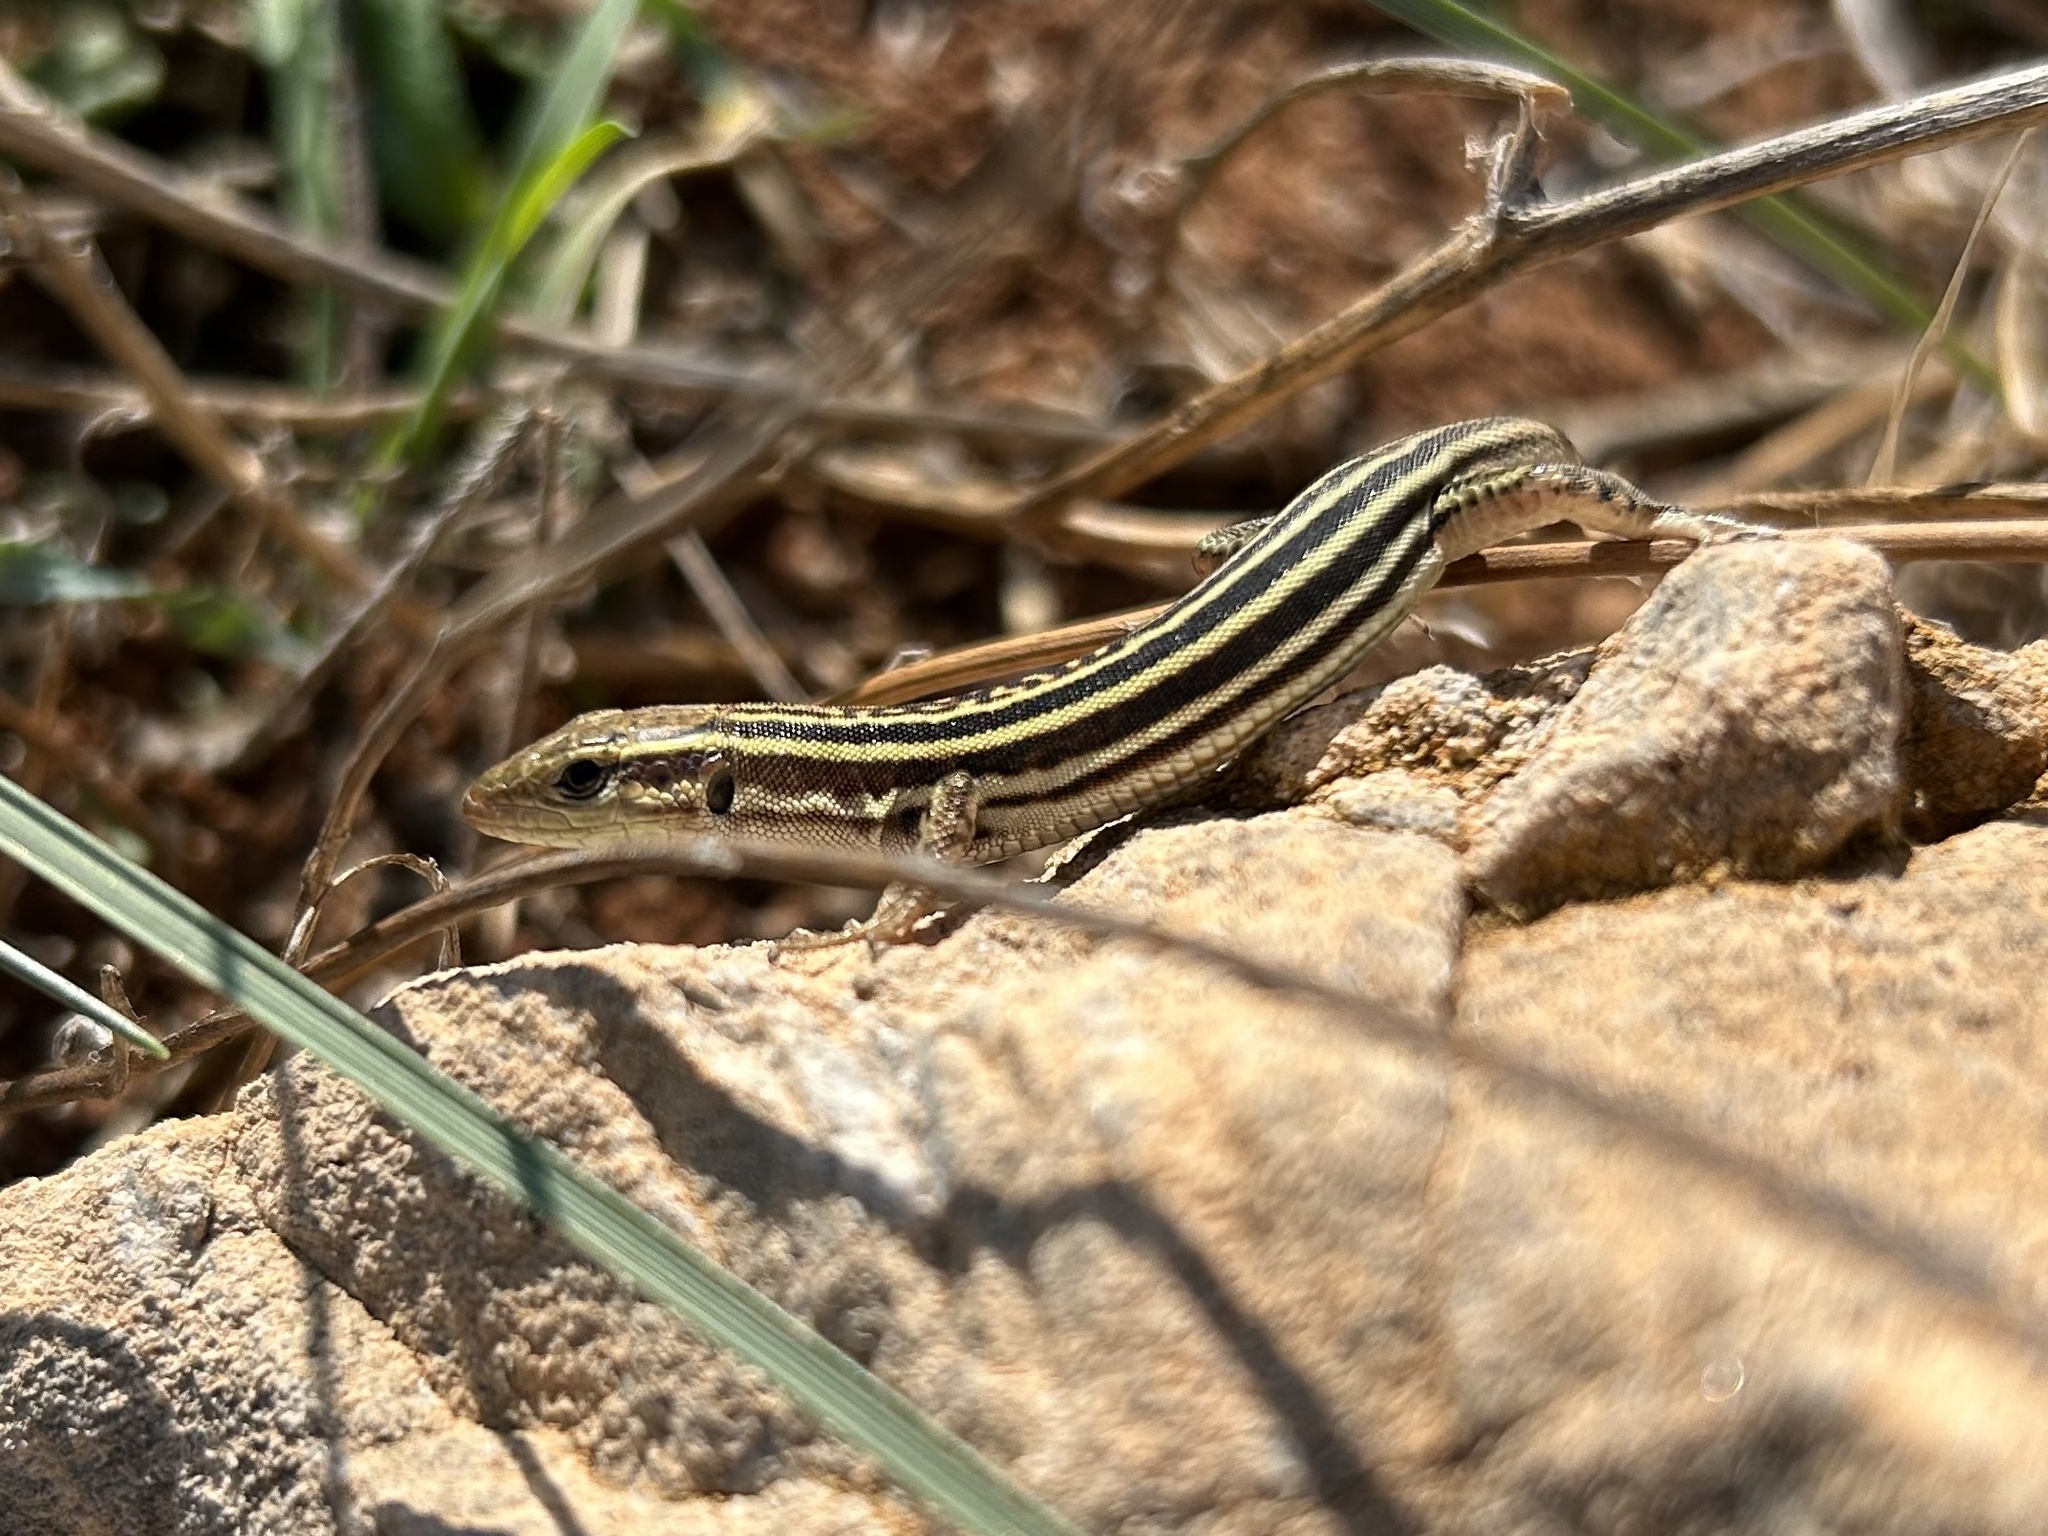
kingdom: Animalia
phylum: Chordata
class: Squamata
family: Lacertidae
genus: Podarcis
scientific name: Podarcis peloponnesiacus
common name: Peloponnese wall lizard
